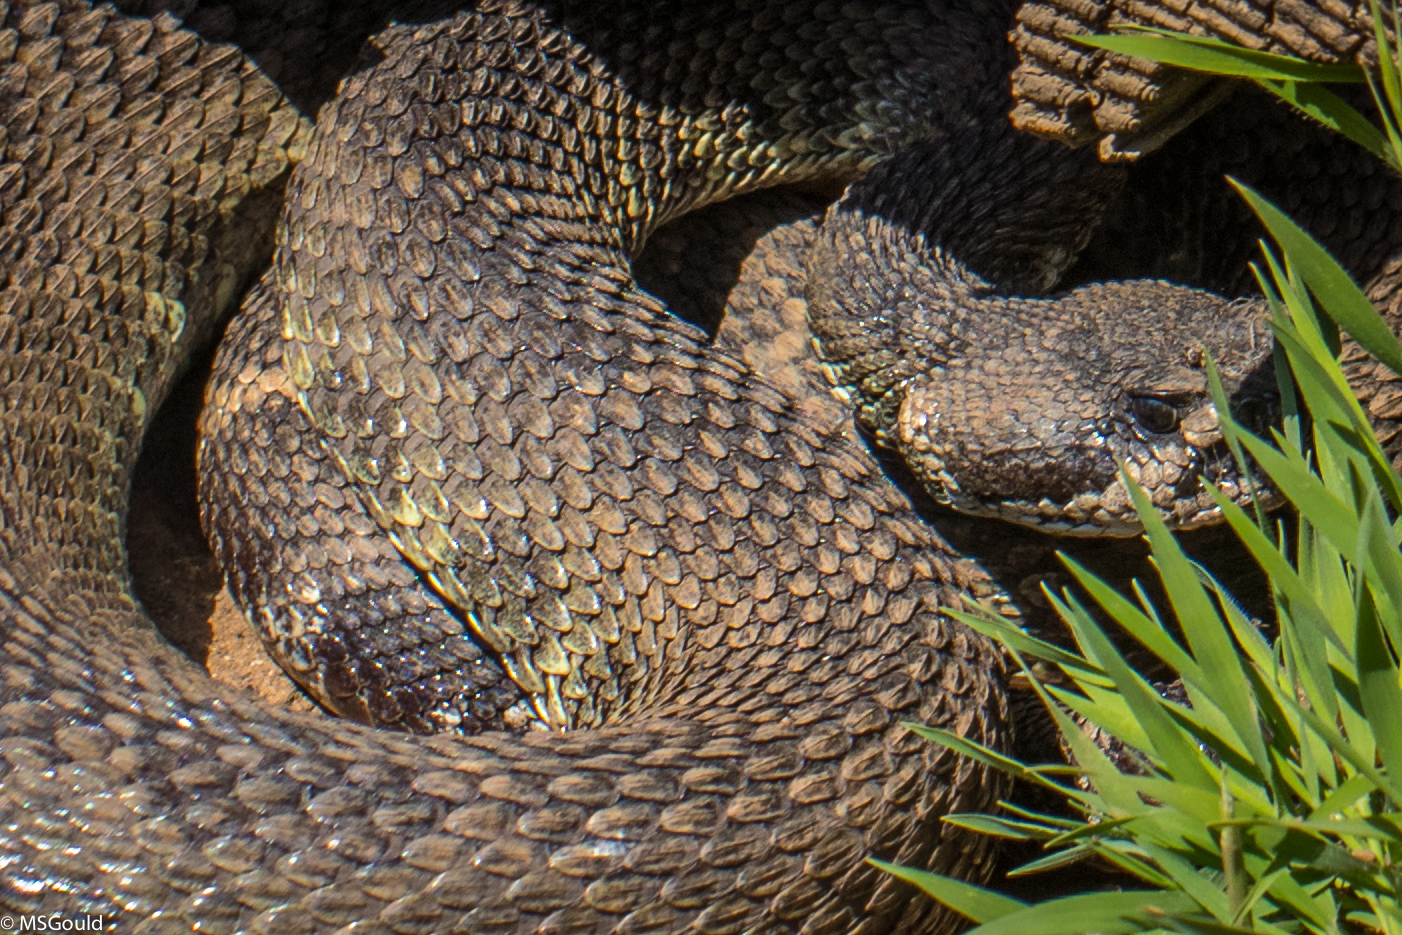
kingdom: Animalia
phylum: Chordata
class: Squamata
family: Viperidae
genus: Crotalus
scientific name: Crotalus oreganus
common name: Abyssus
